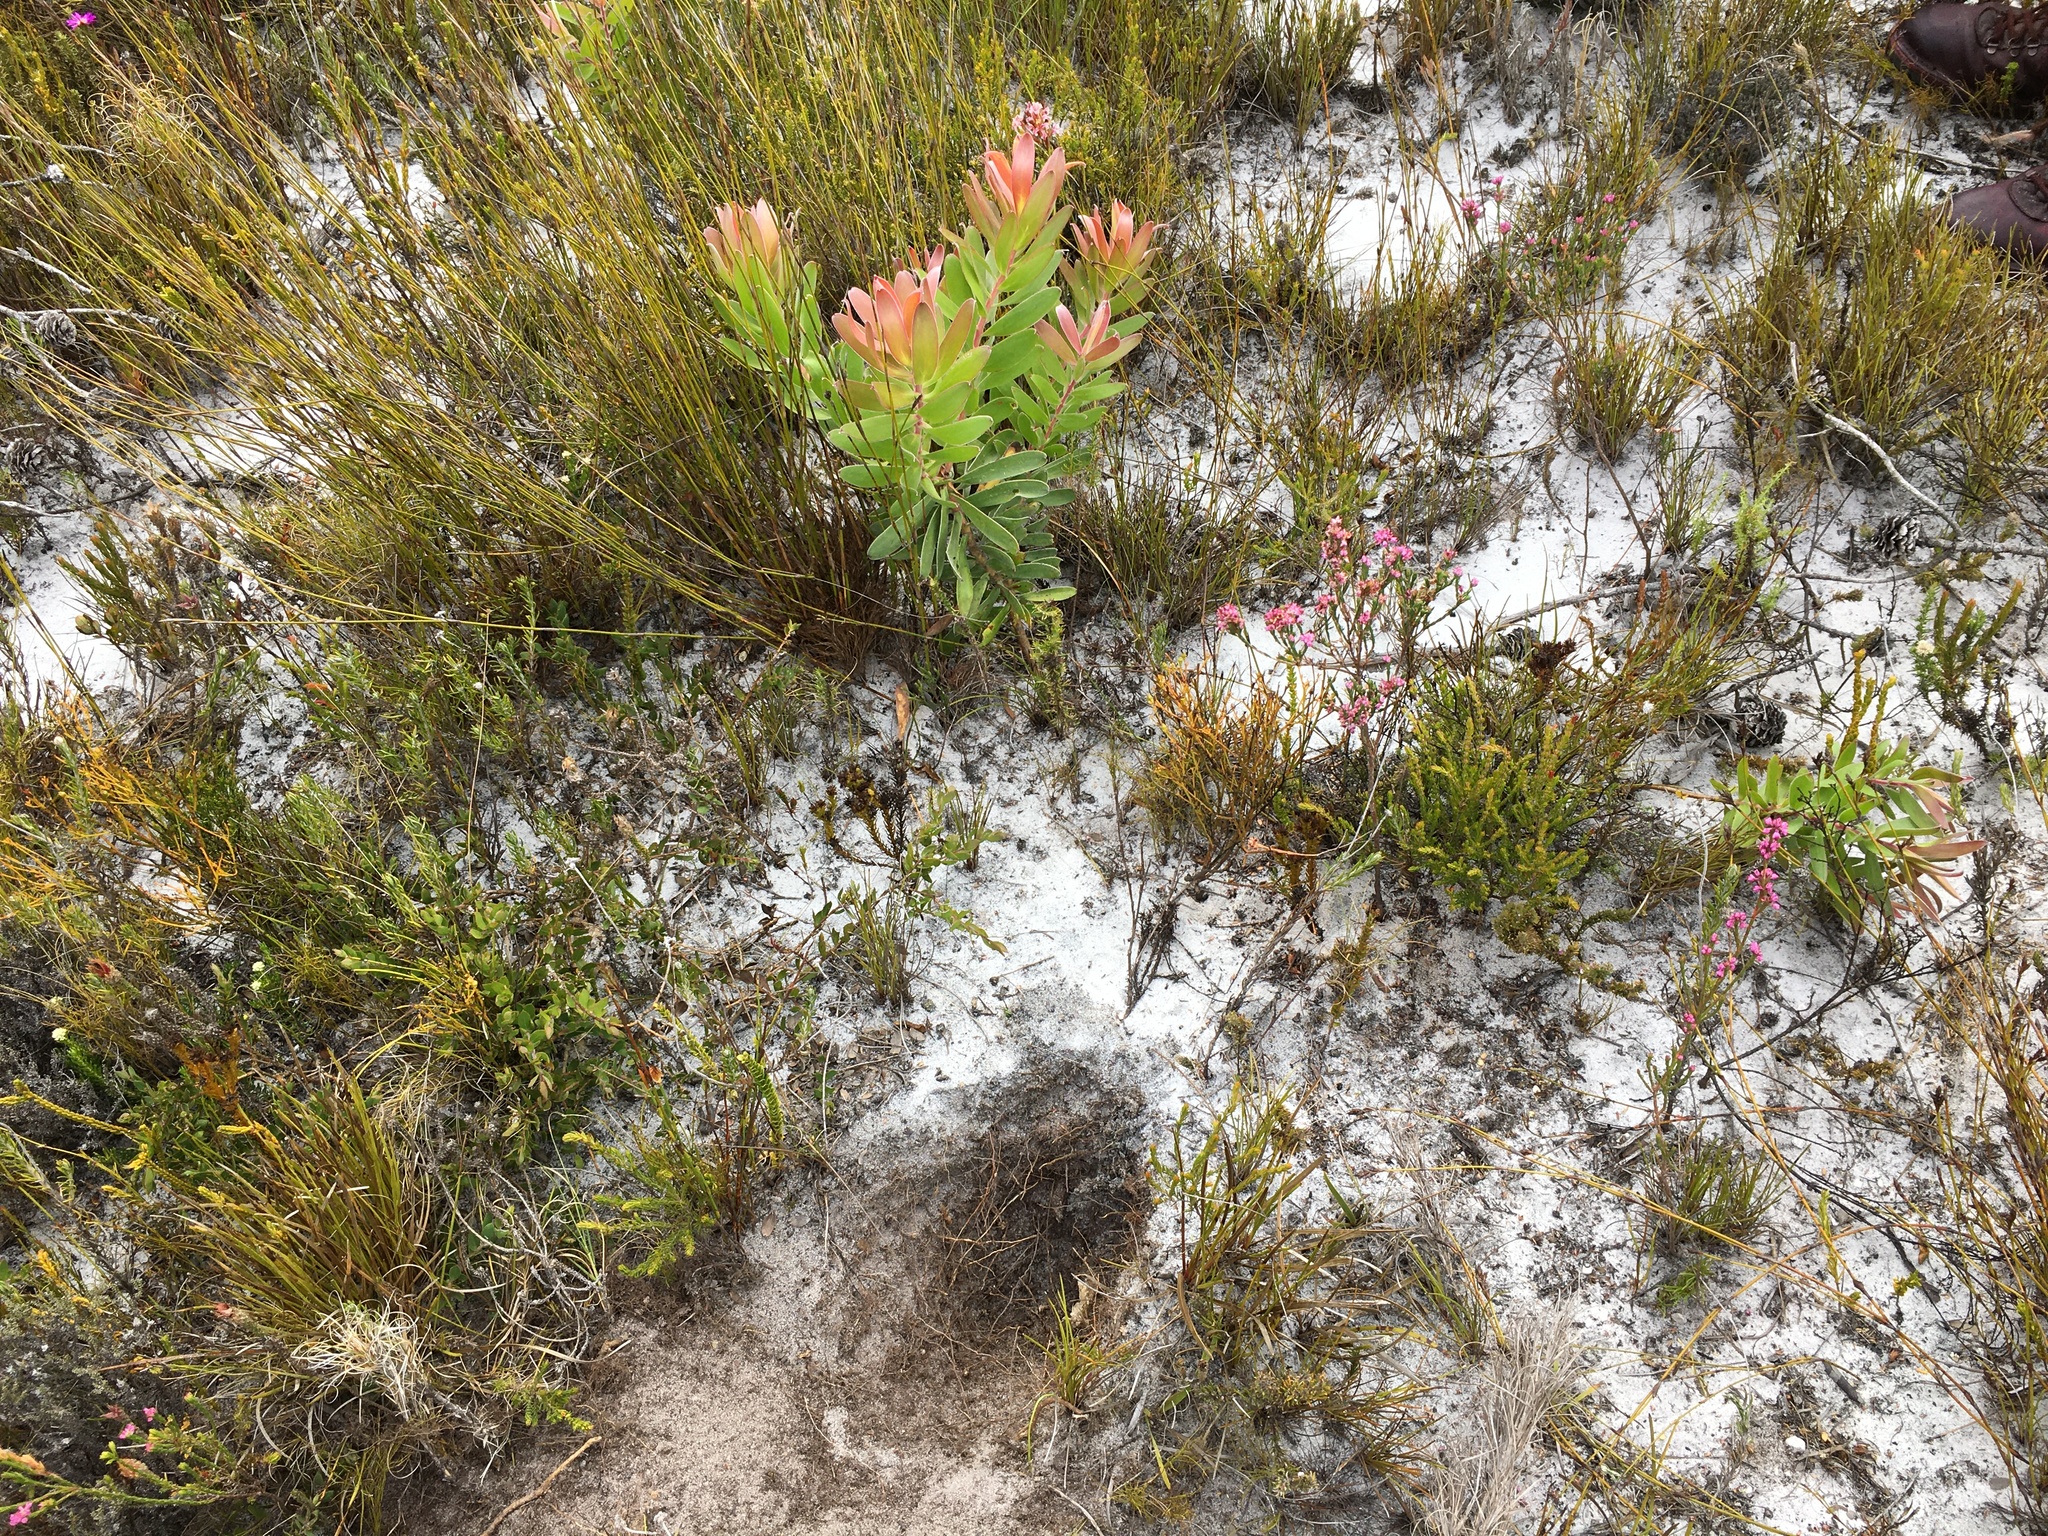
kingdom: Plantae
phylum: Tracheophyta
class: Magnoliopsida
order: Proteales
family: Proteaceae
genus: Leucadendron
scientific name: Leucadendron laureolum
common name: Golden sunshinebush
